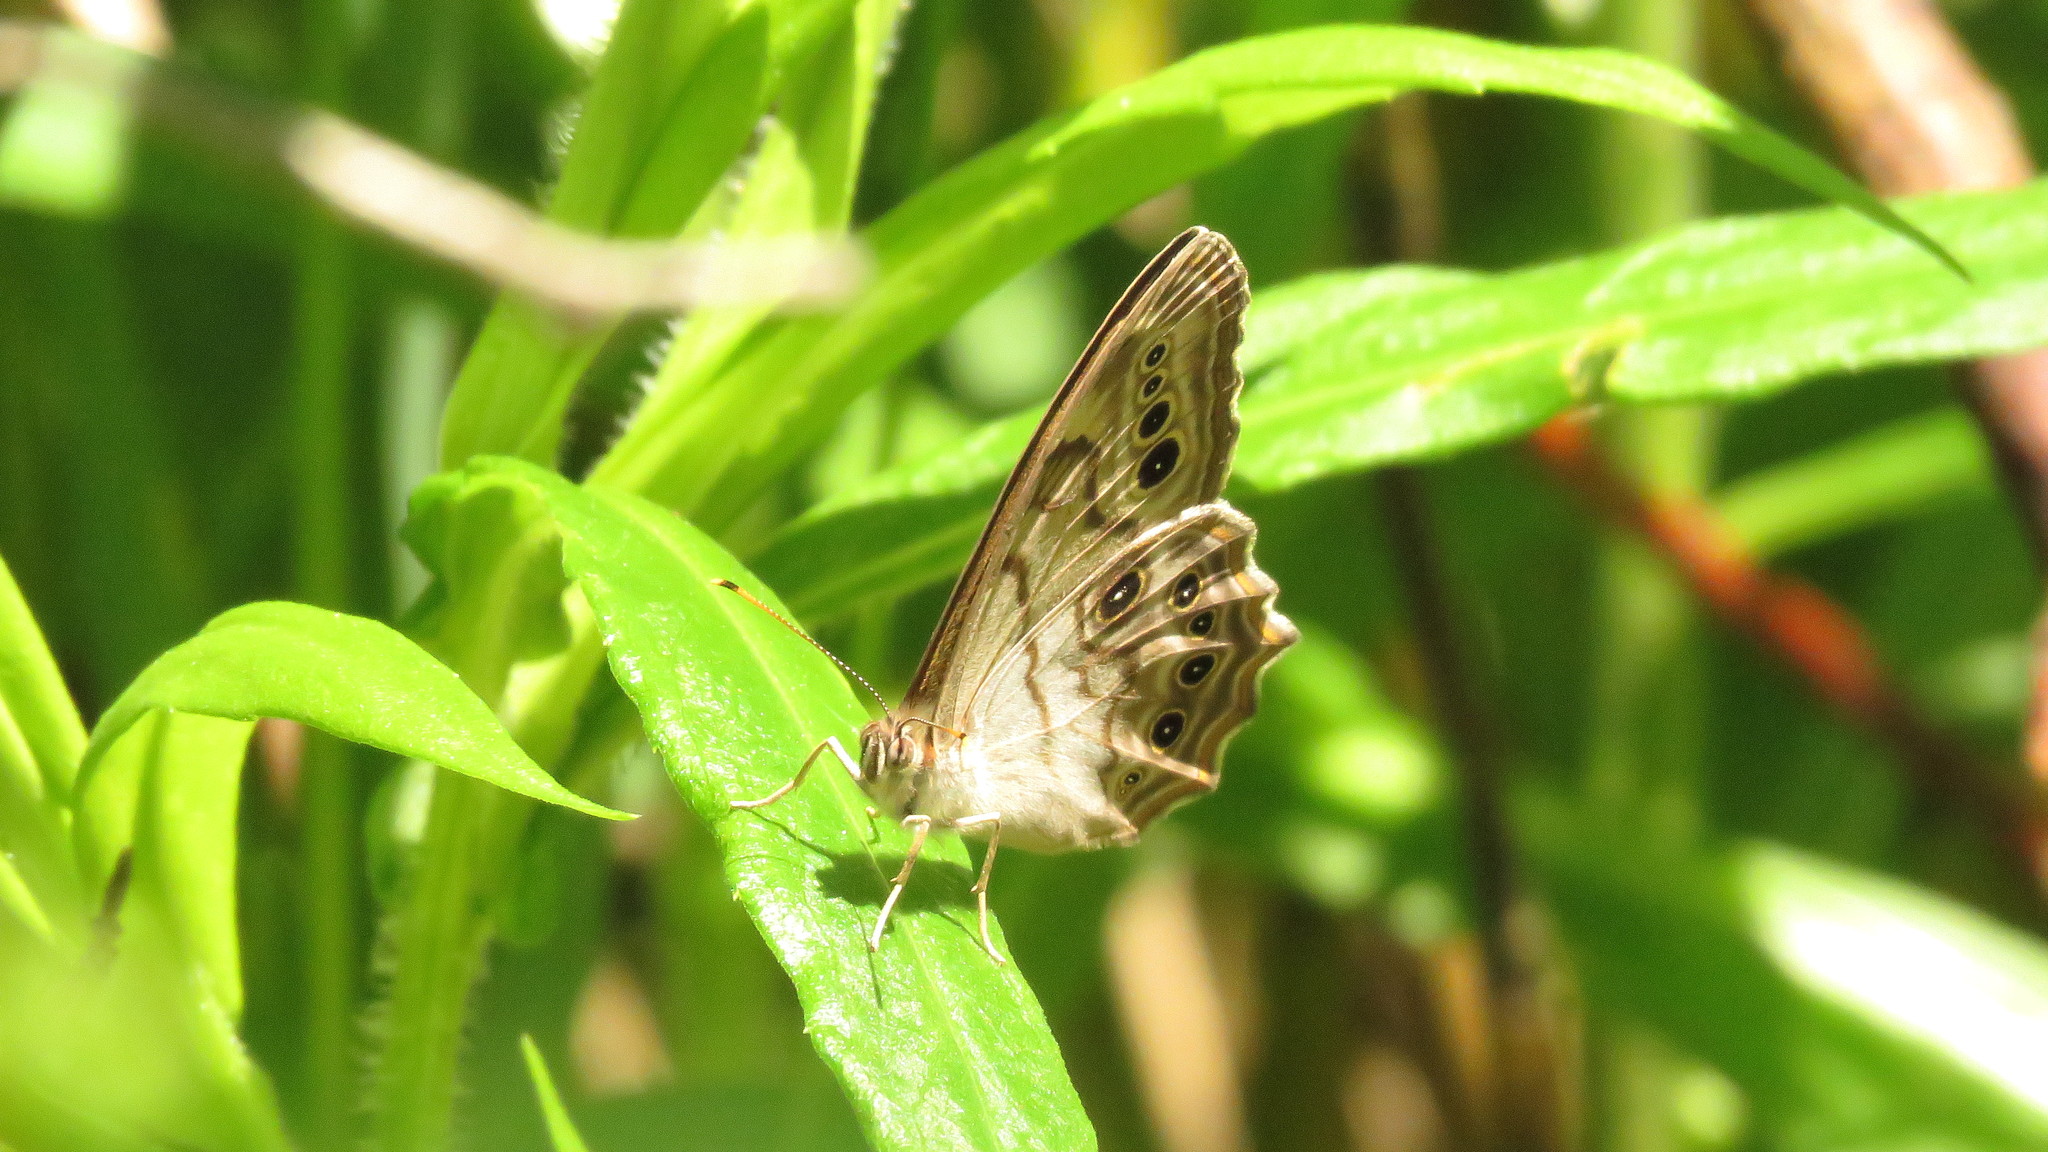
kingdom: Animalia
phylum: Arthropoda
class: Insecta
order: Lepidoptera
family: Nymphalidae
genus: Lethe
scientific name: Lethe anthedon
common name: Northern pearly-eye
